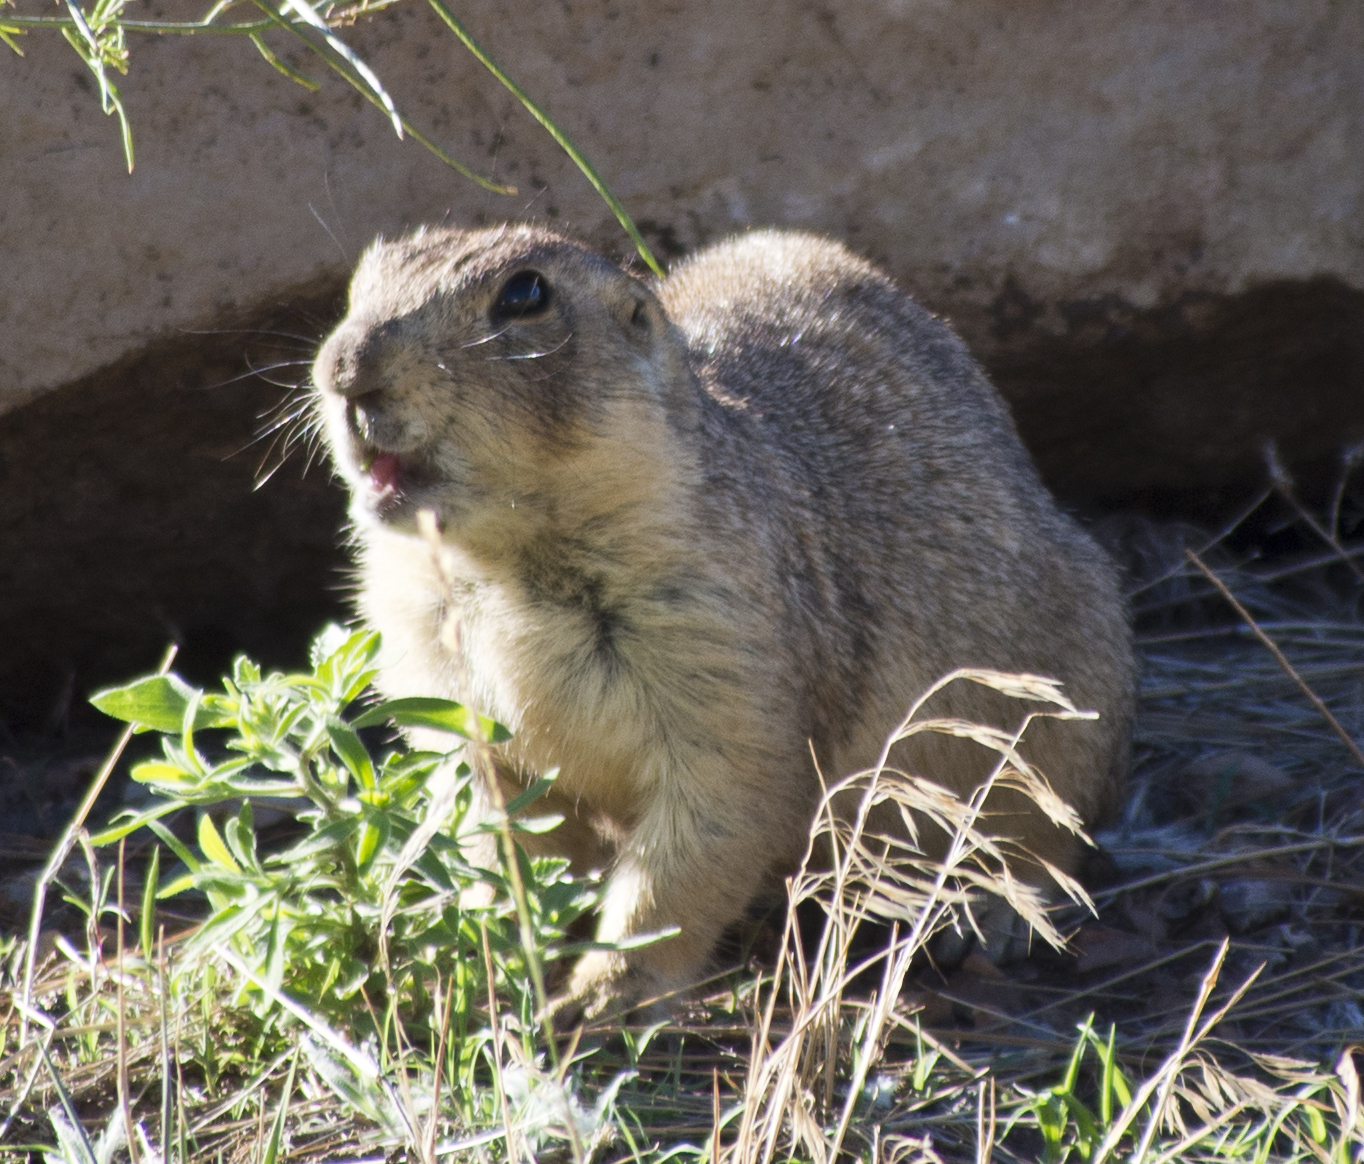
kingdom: Animalia
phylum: Chordata
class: Mammalia
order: Rodentia
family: Sciuridae
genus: Cynomys
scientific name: Cynomys gunnisoni
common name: Gunnison's prairie dog
